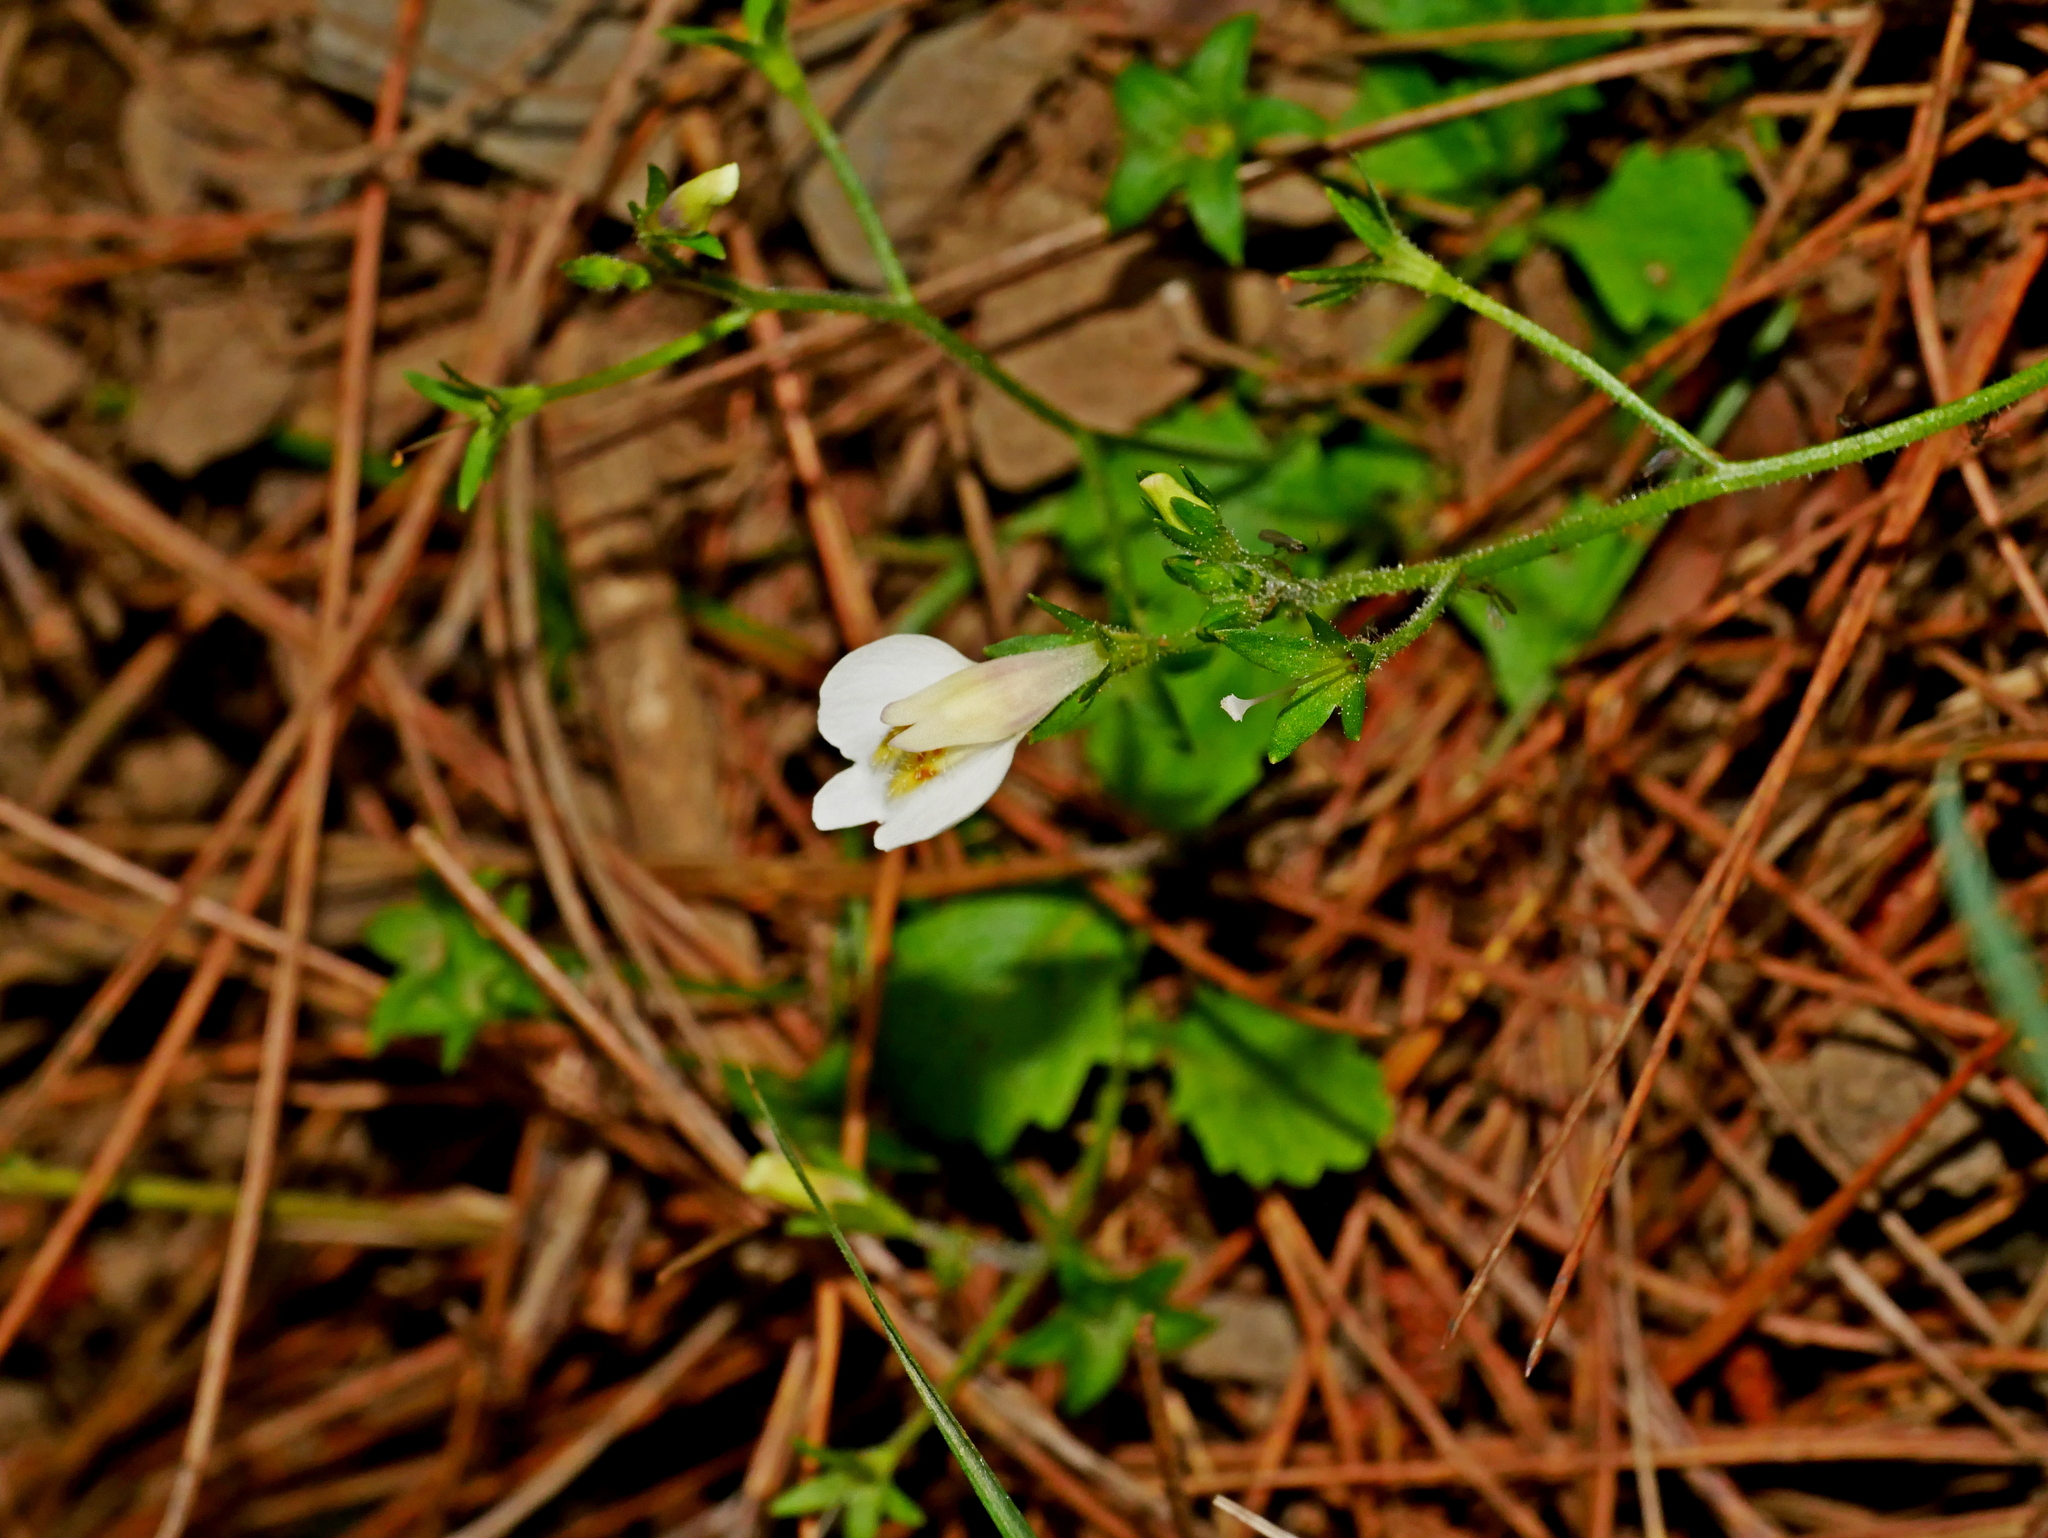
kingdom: Plantae
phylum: Tracheophyta
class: Magnoliopsida
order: Lamiales
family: Mazaceae
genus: Mazus
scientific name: Mazus alpinus
